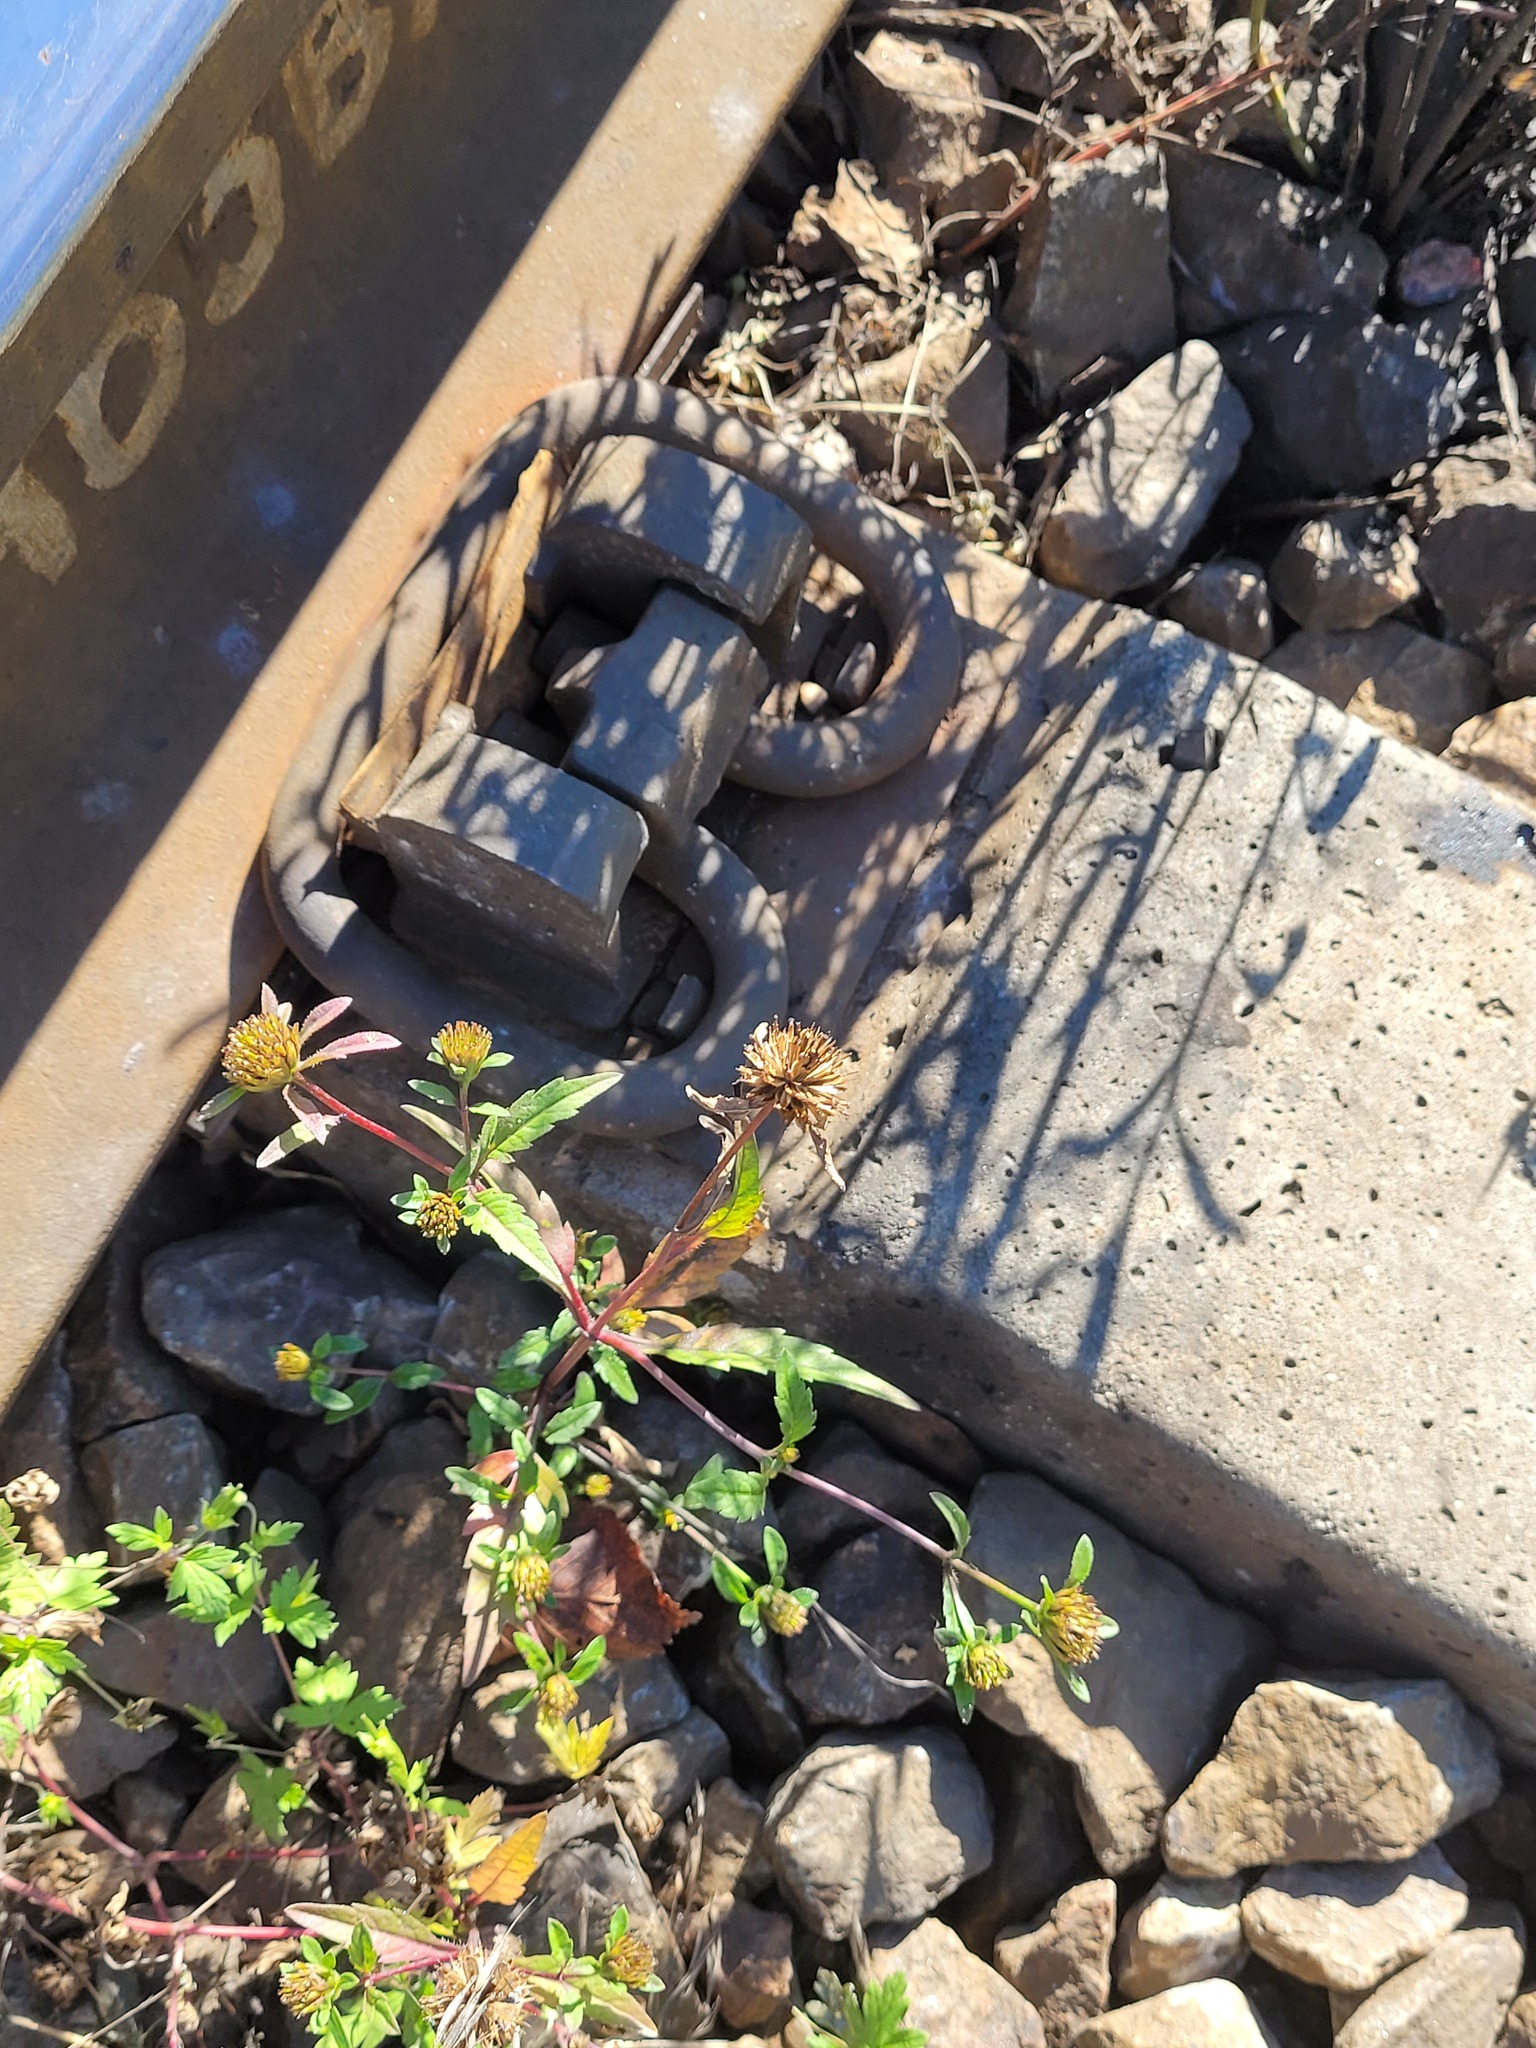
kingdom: Plantae
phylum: Tracheophyta
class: Magnoliopsida
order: Asterales
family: Asteraceae
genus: Bidens
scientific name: Bidens tripartita
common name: Trifid bur-marigold
